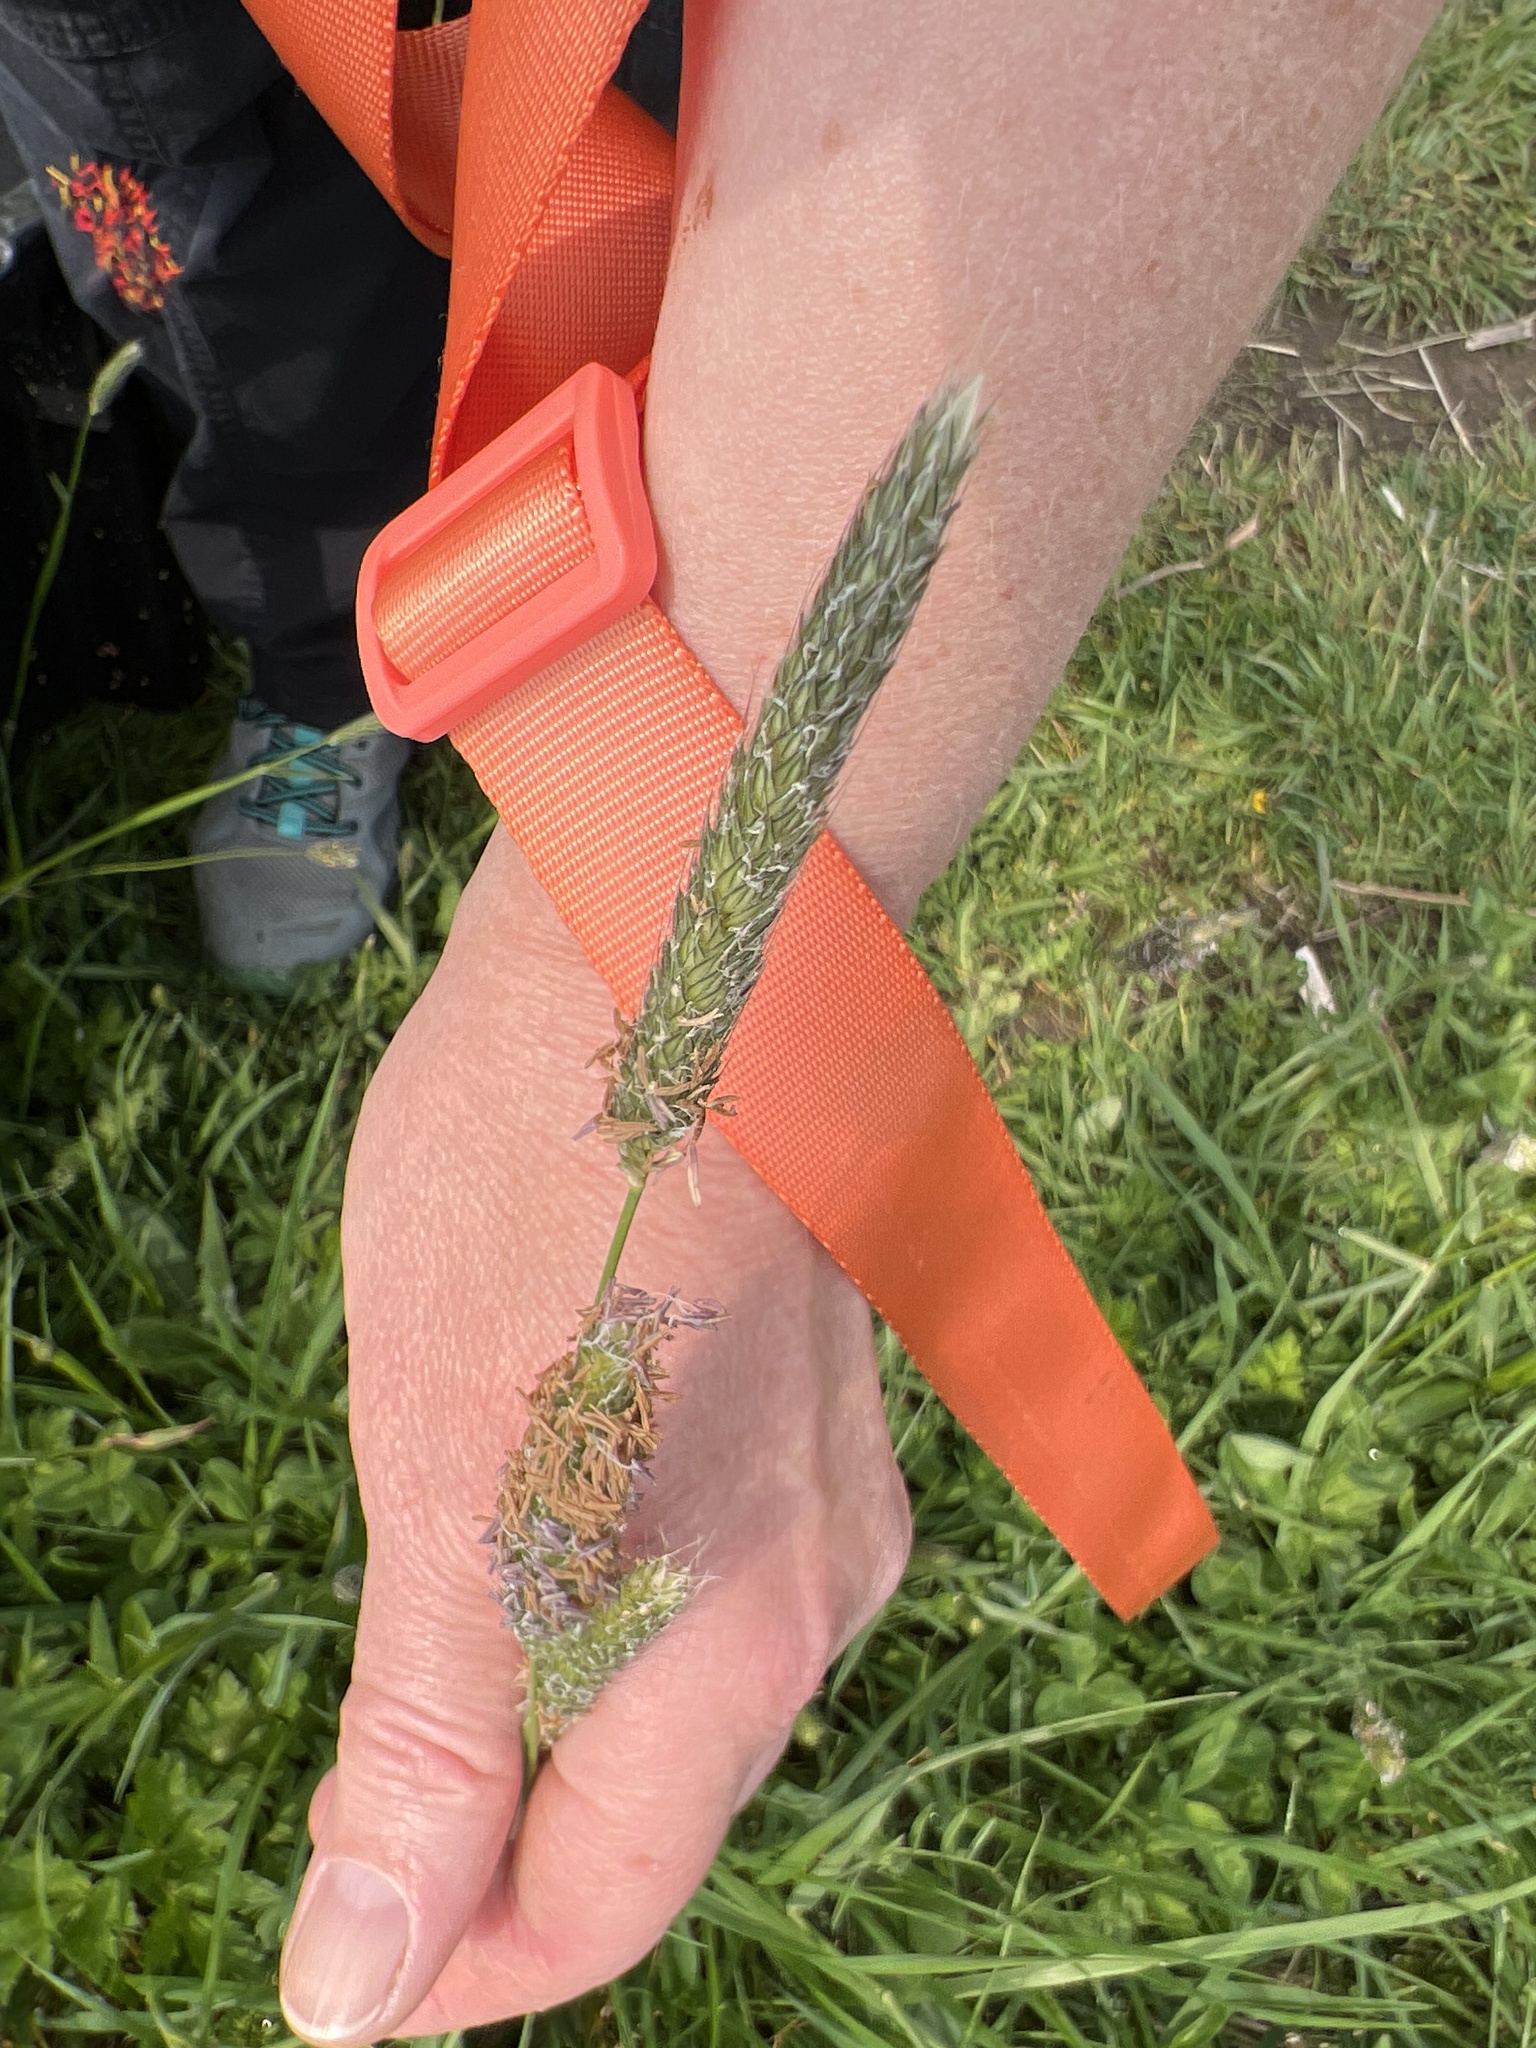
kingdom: Plantae
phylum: Tracheophyta
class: Liliopsida
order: Poales
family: Poaceae
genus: Alopecurus
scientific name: Alopecurus pratensis
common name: Meadow foxtail
